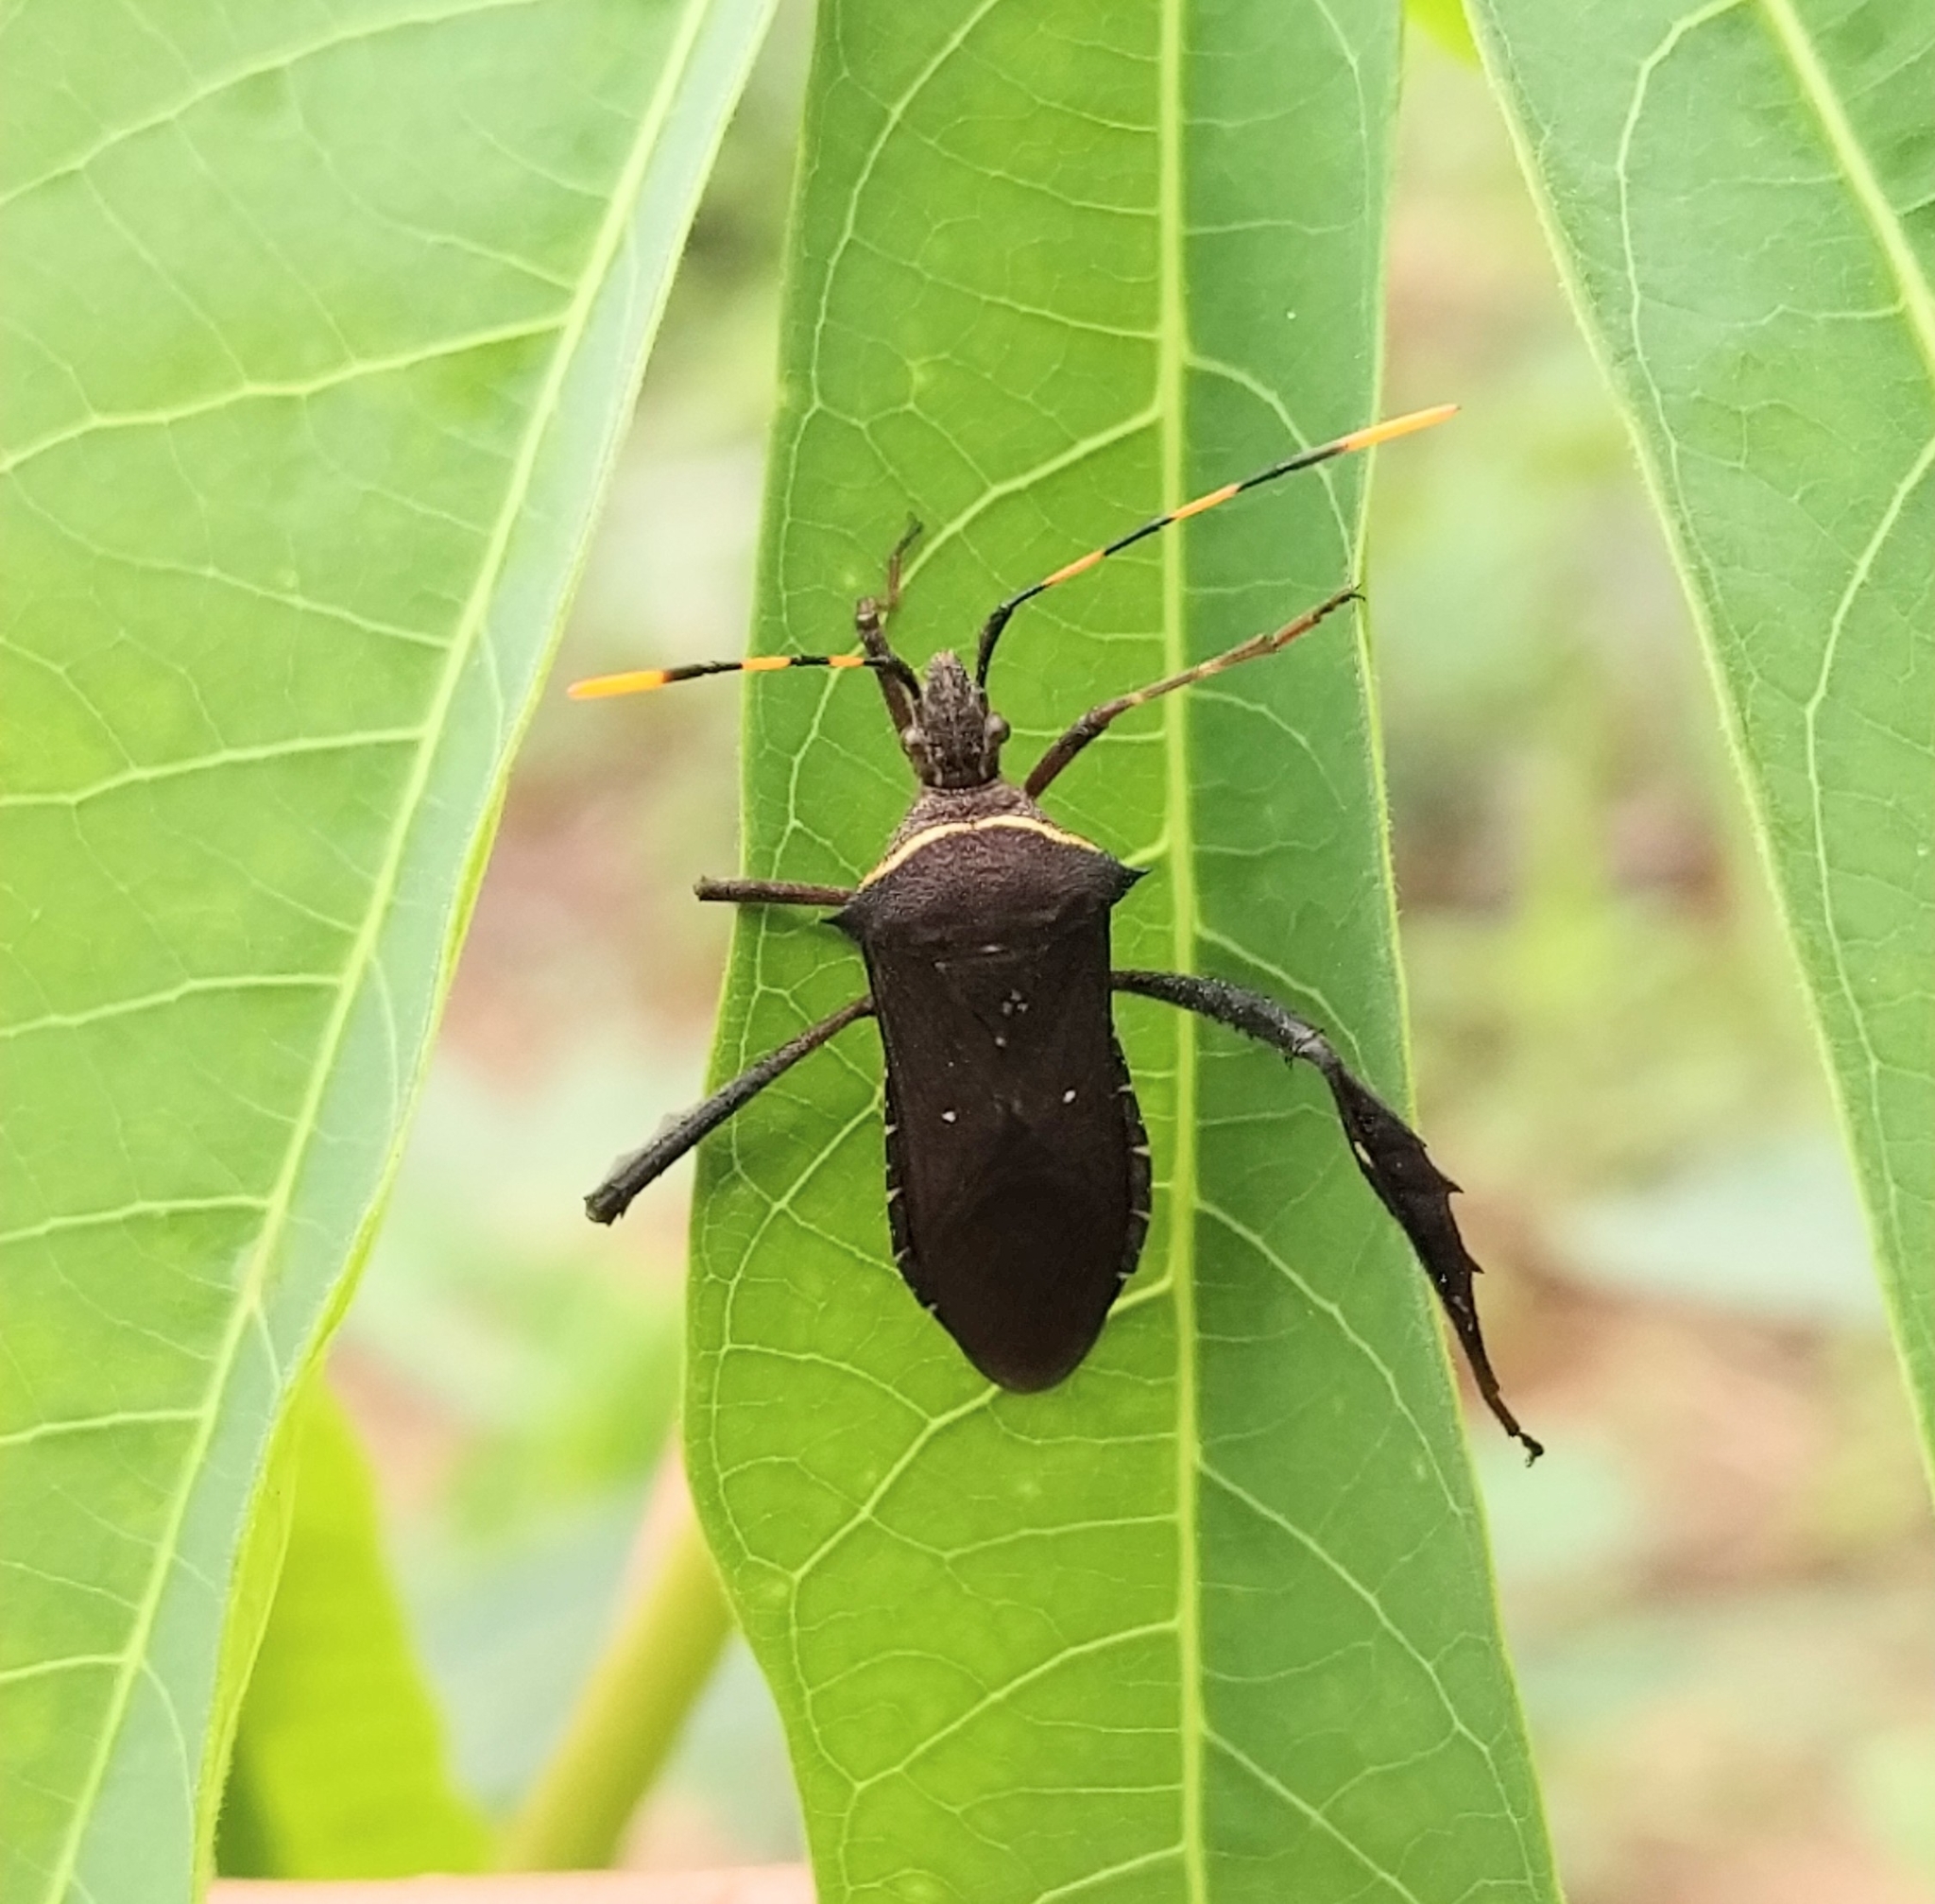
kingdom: Animalia
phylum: Arthropoda
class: Insecta
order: Hemiptera
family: Coreidae
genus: Leptoglossus
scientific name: Leptoglossus gonagra
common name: Citron bug
